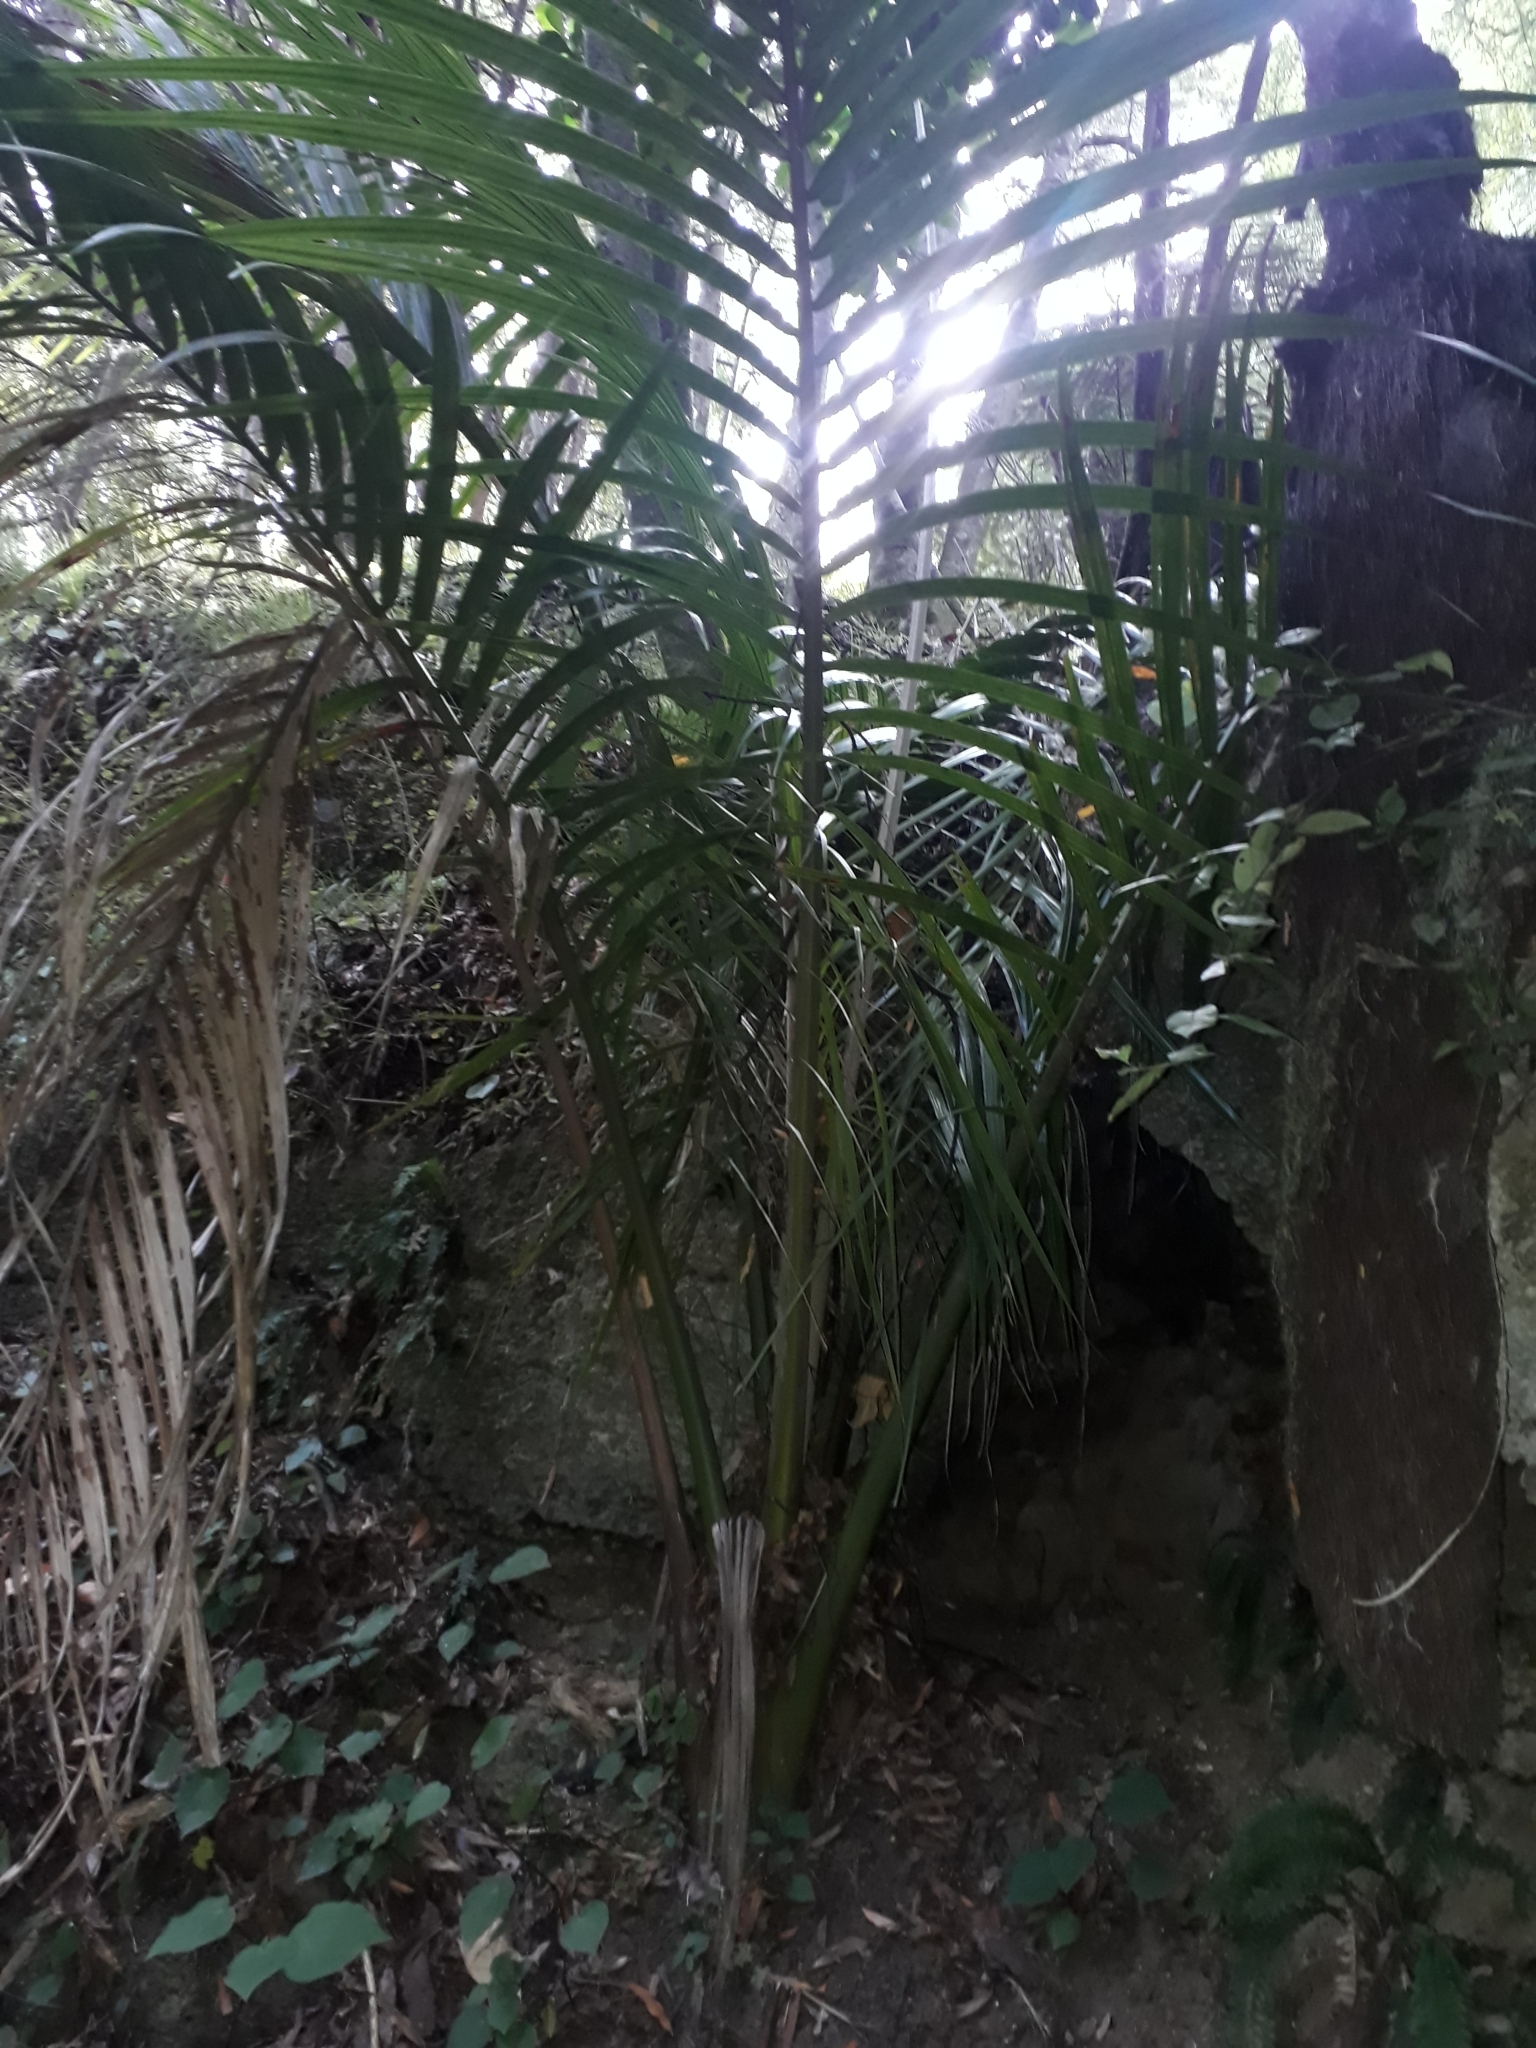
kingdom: Plantae
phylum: Tracheophyta
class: Liliopsida
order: Arecales
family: Arecaceae
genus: Rhopalostylis
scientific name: Rhopalostylis sapida
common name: Feather-duster palm
